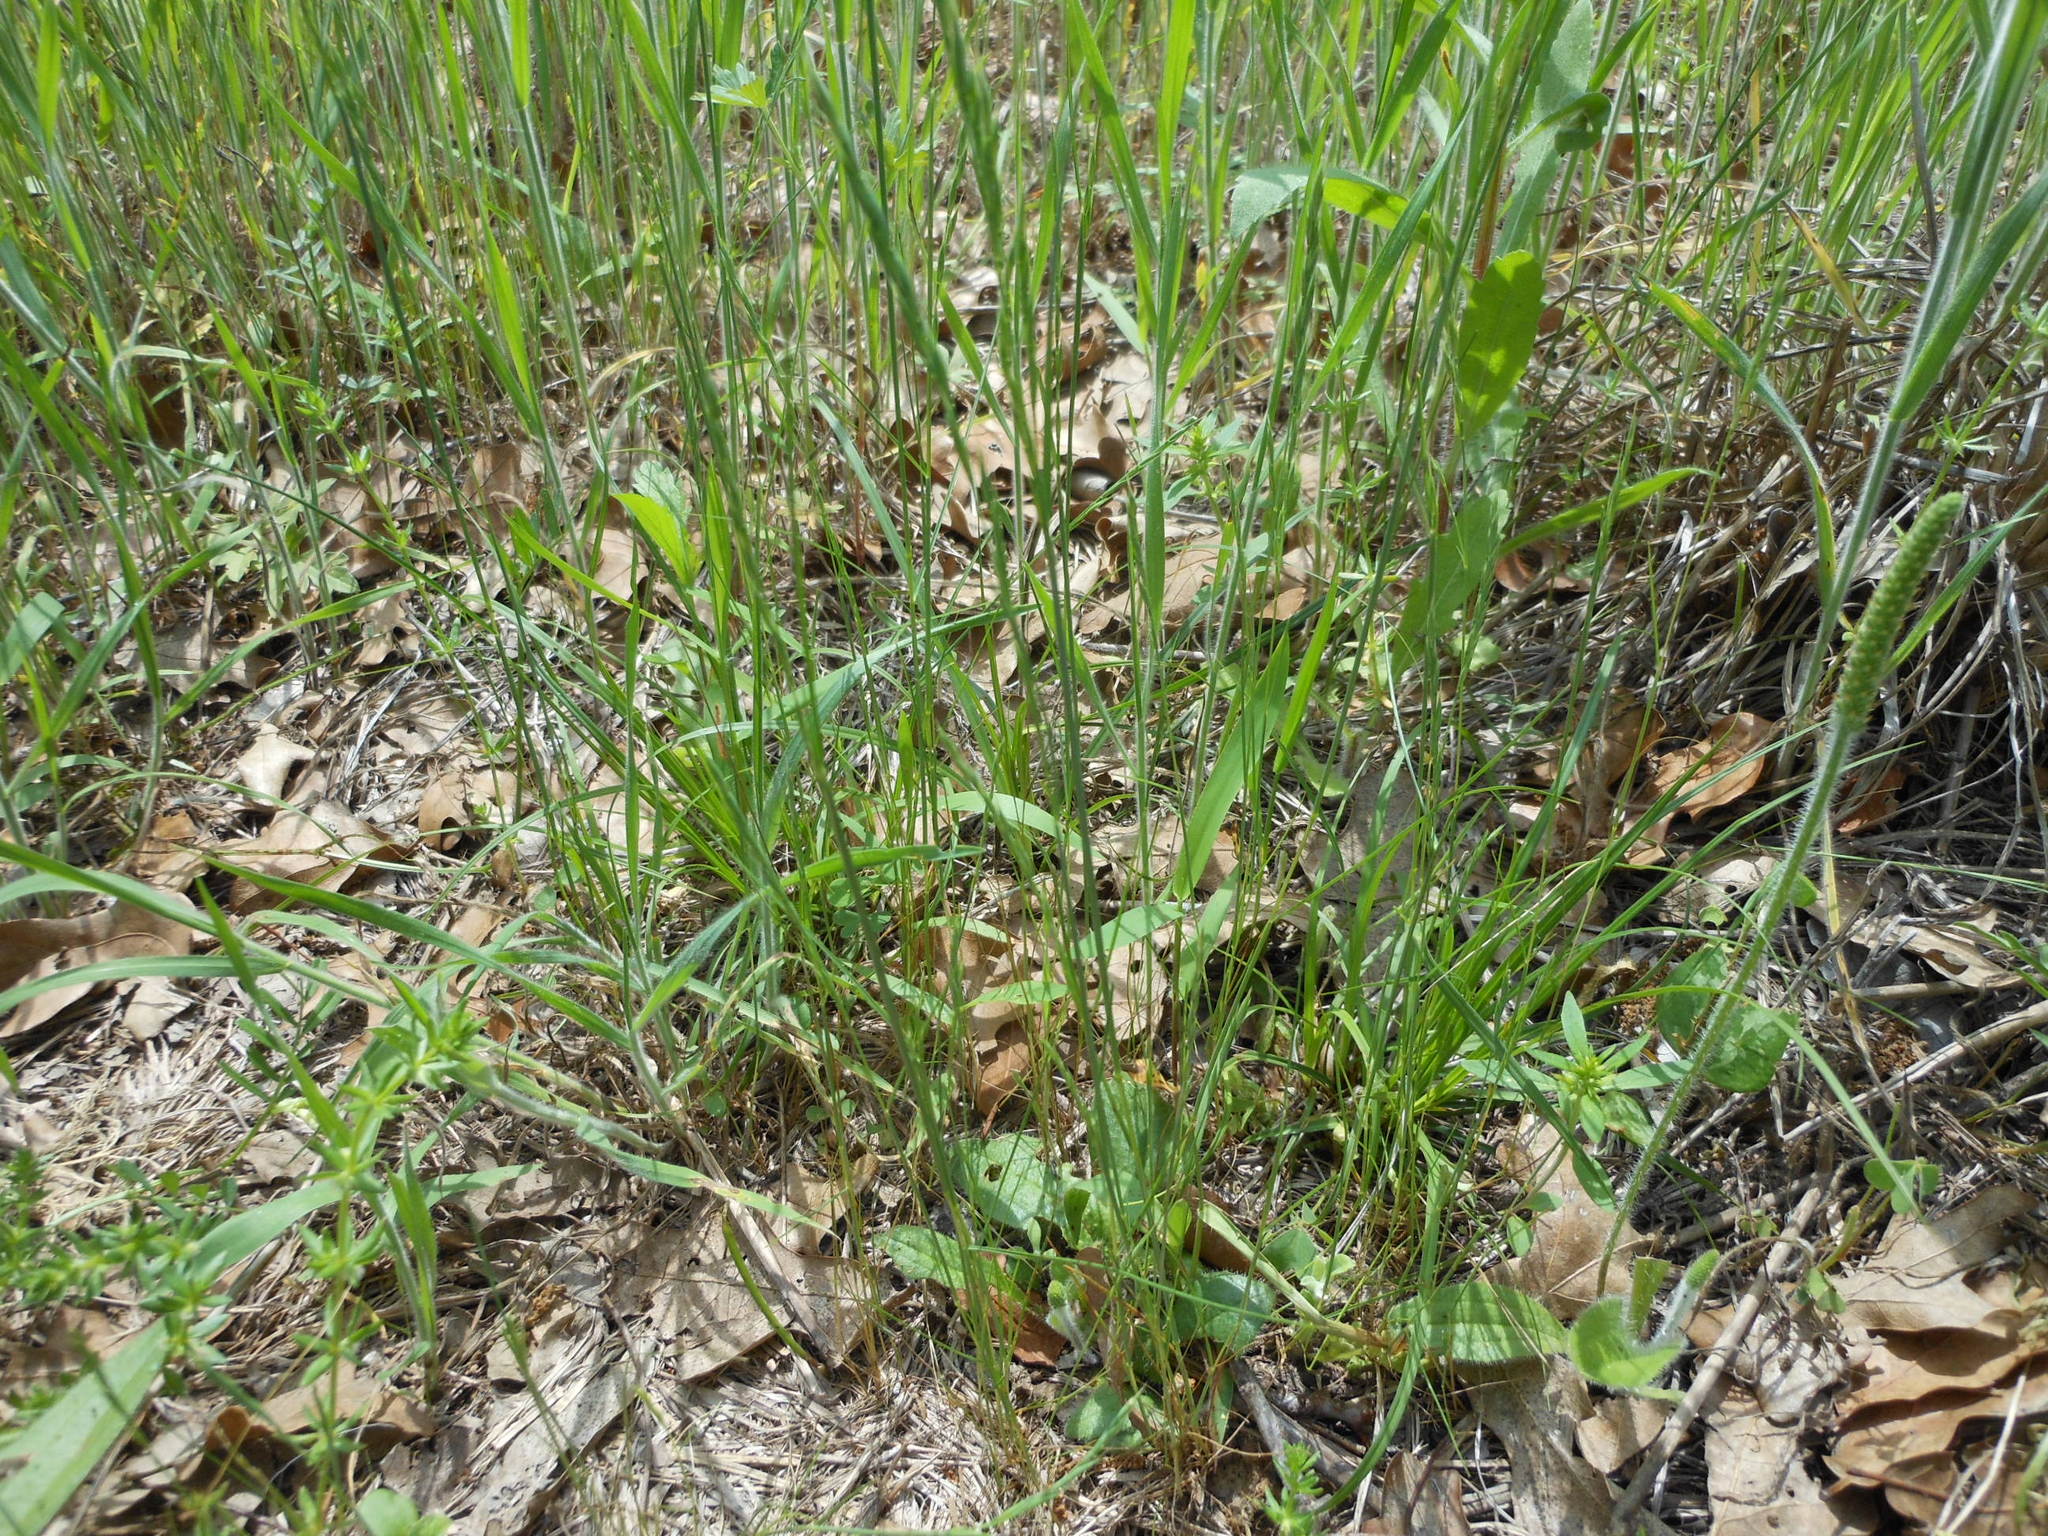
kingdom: Plantae
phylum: Tracheophyta
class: Liliopsida
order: Poales
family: Poaceae
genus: Festuca
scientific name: Festuca octoflora
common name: Sixweeks grass
